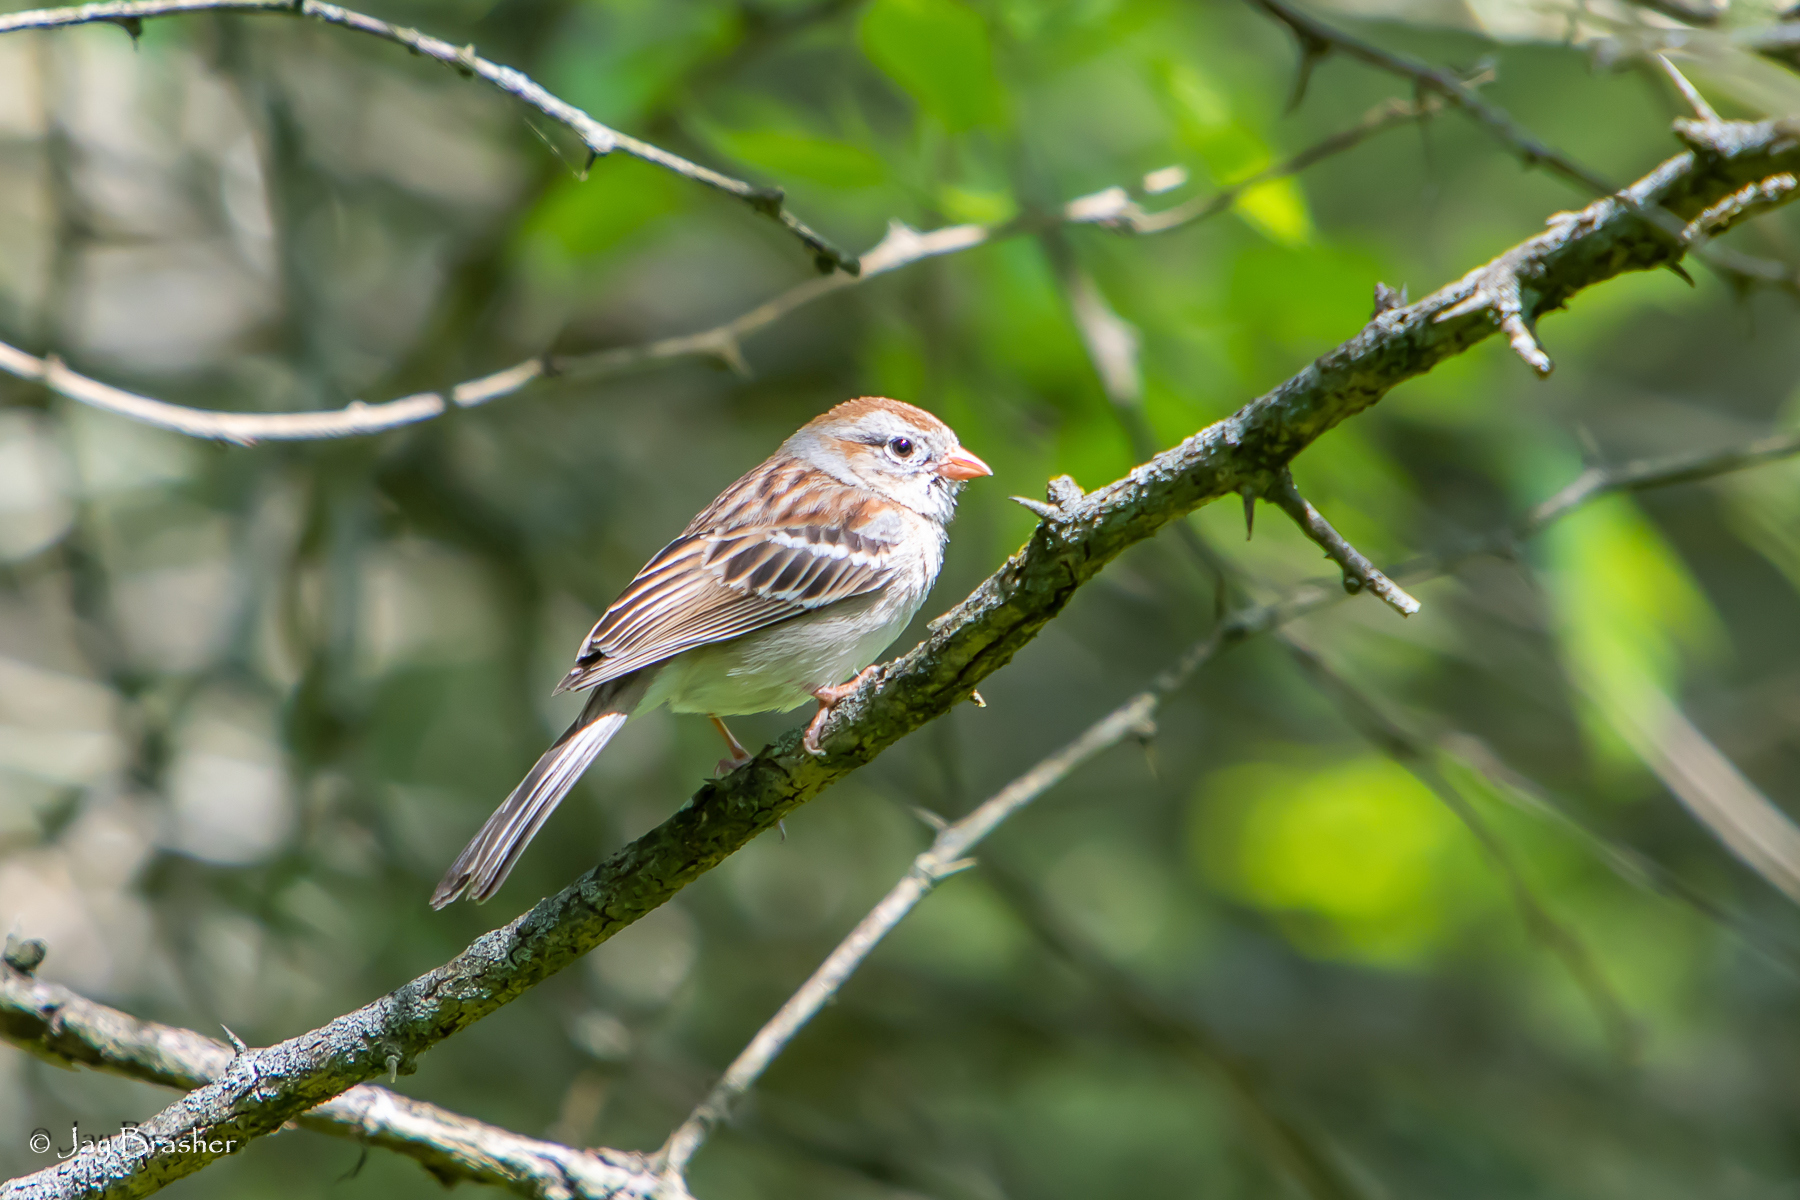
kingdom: Animalia
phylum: Chordata
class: Aves
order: Passeriformes
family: Passerellidae
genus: Spizella
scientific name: Spizella pusilla
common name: Field sparrow
